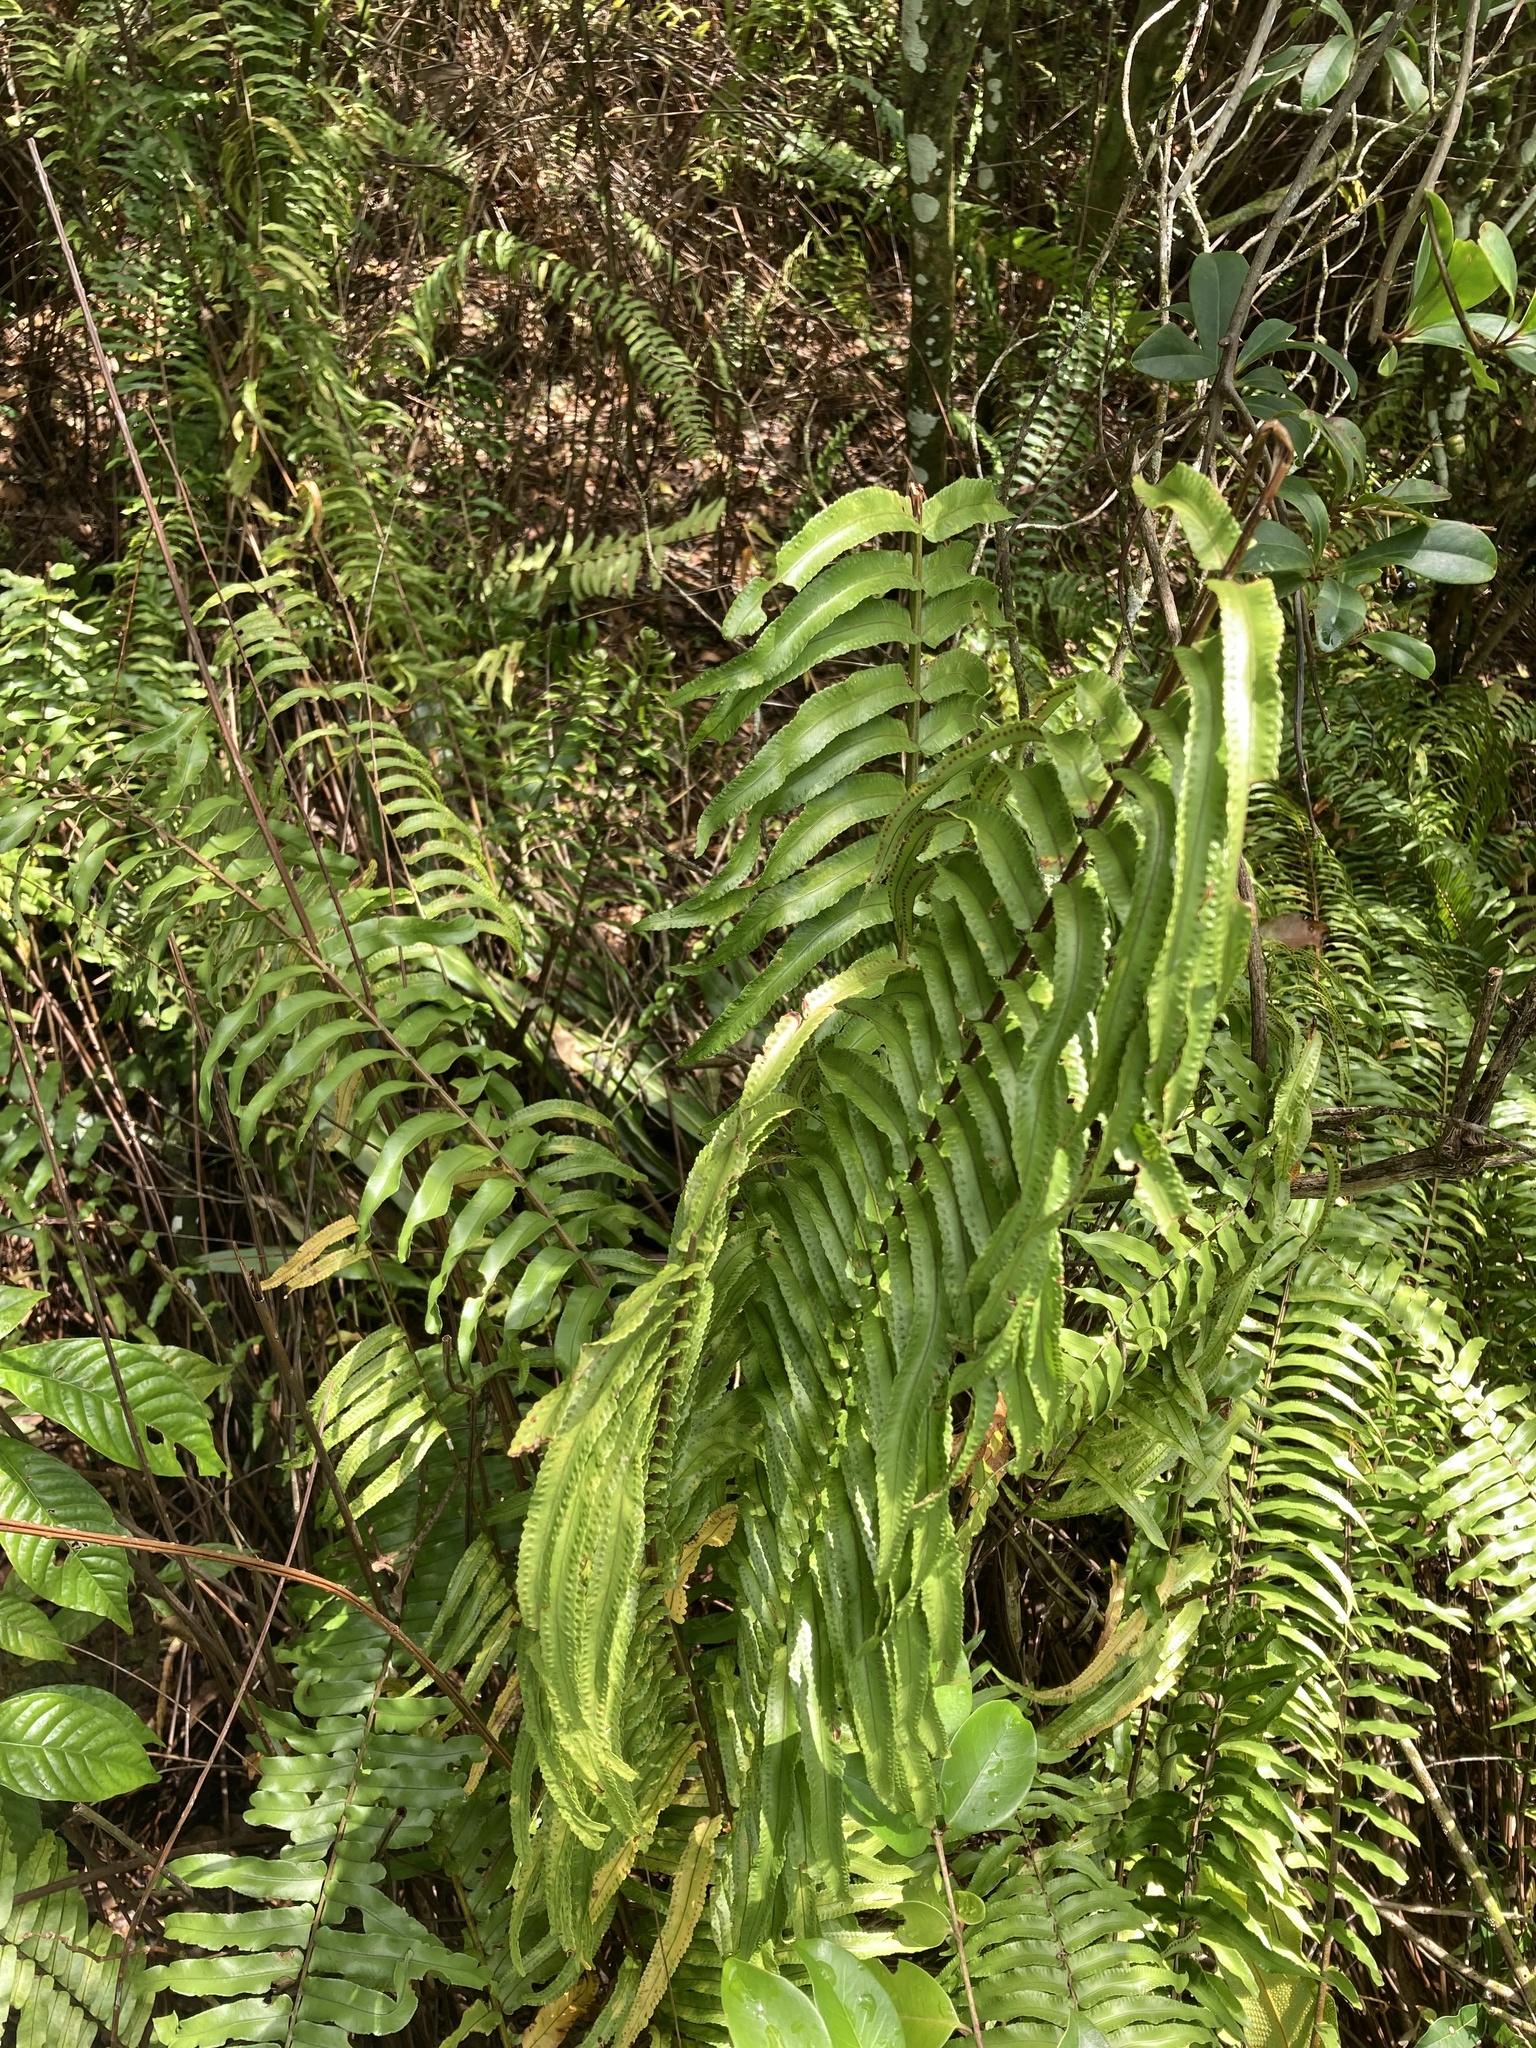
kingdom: Plantae
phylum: Tracheophyta
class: Polypodiopsida
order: Polypodiales
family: Nephrolepidaceae
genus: Nephrolepis
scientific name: Nephrolepis biserrata
